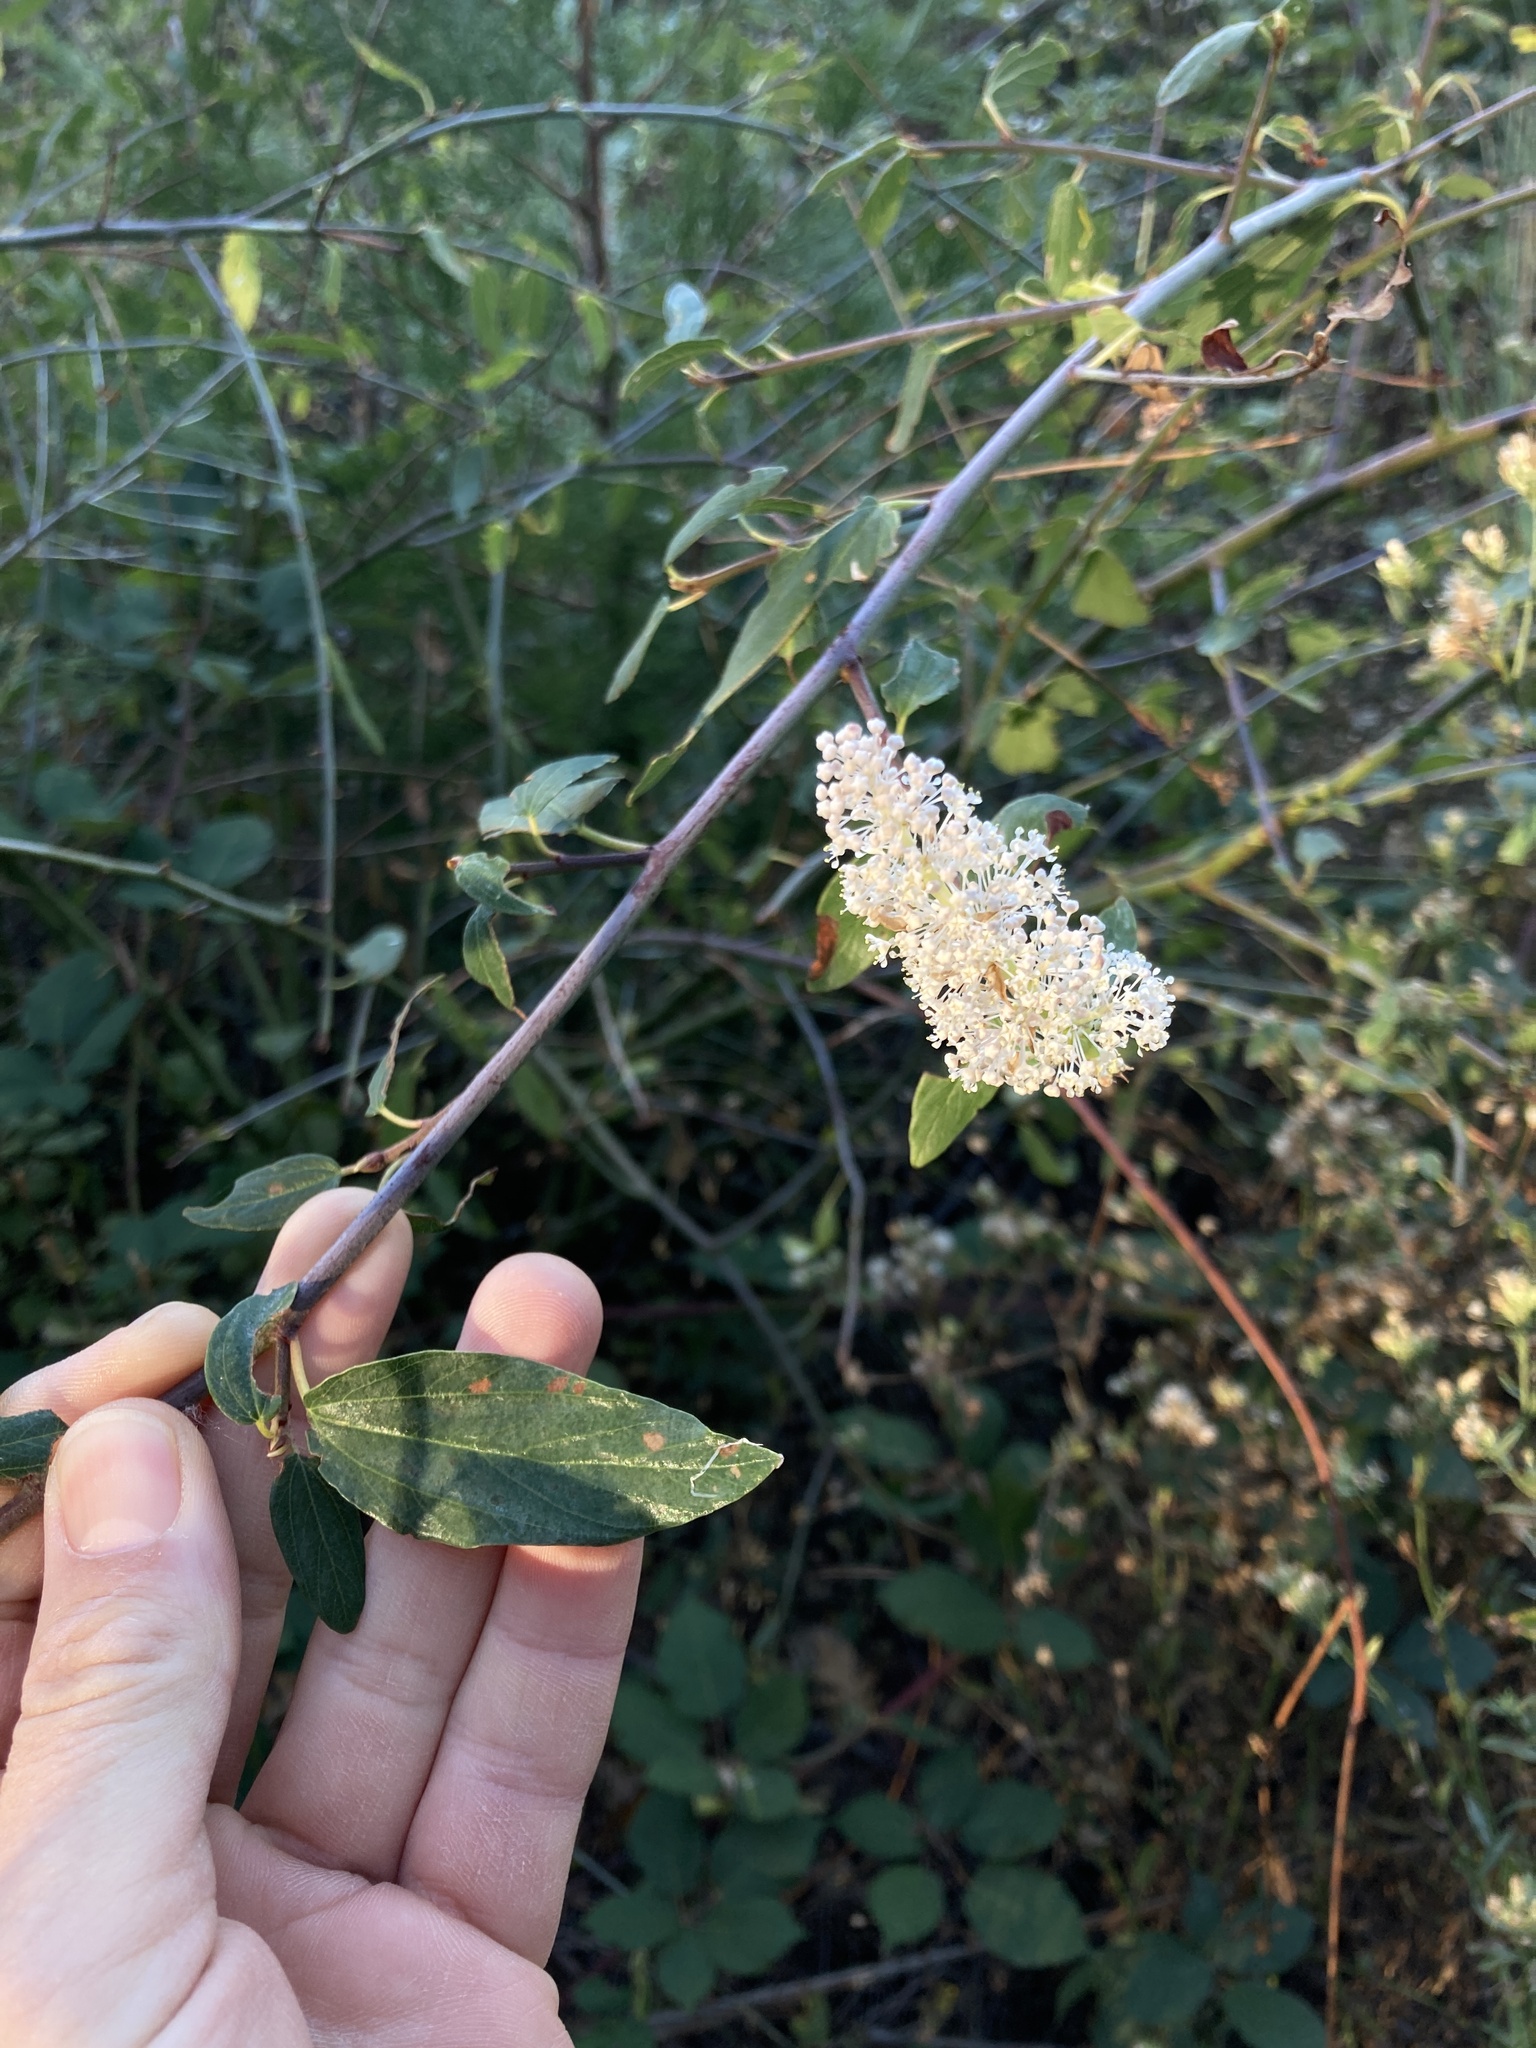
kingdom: Plantae
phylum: Tracheophyta
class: Magnoliopsida
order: Rosales
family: Rhamnaceae
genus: Ceanothus
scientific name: Ceanothus integerrimus
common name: Deerbrush ceanothus
